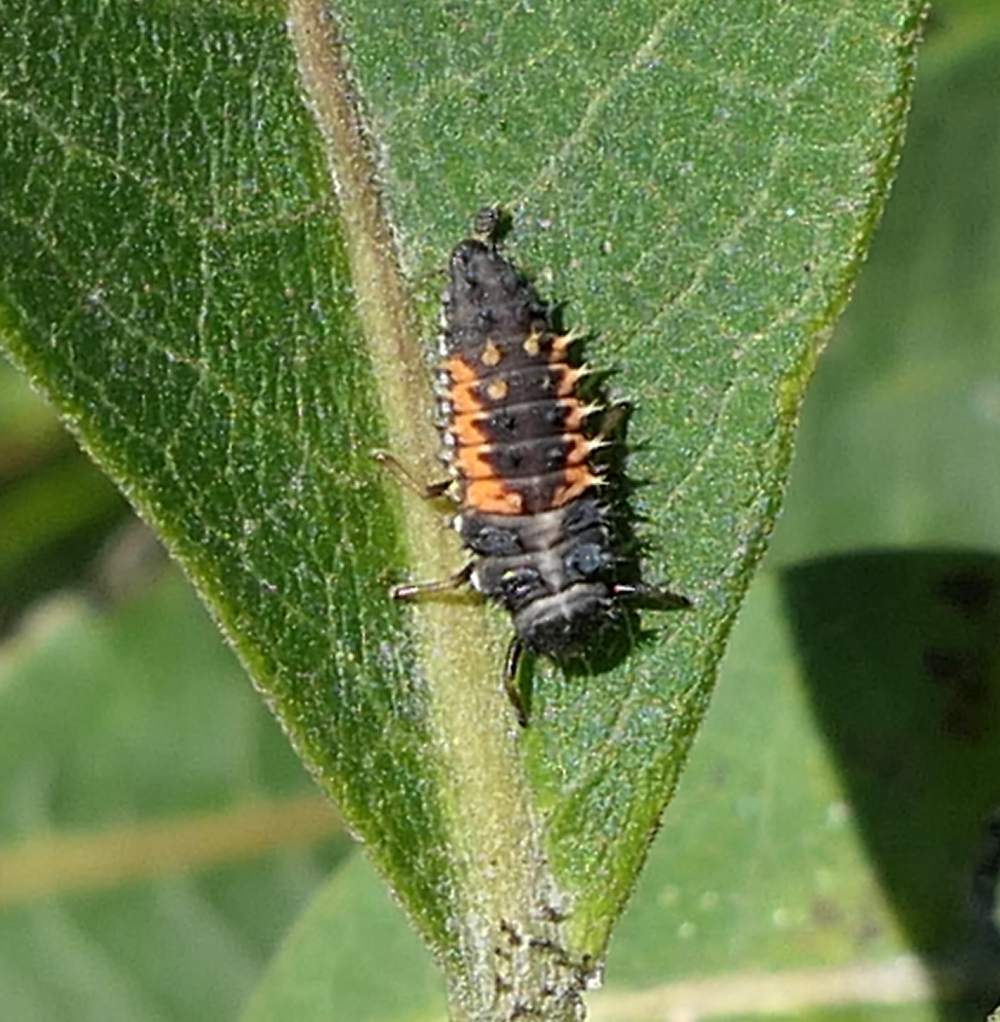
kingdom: Animalia
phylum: Arthropoda
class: Insecta
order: Coleoptera
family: Coccinellidae
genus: Harmonia
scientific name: Harmonia axyridis
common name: Harlequin ladybird
